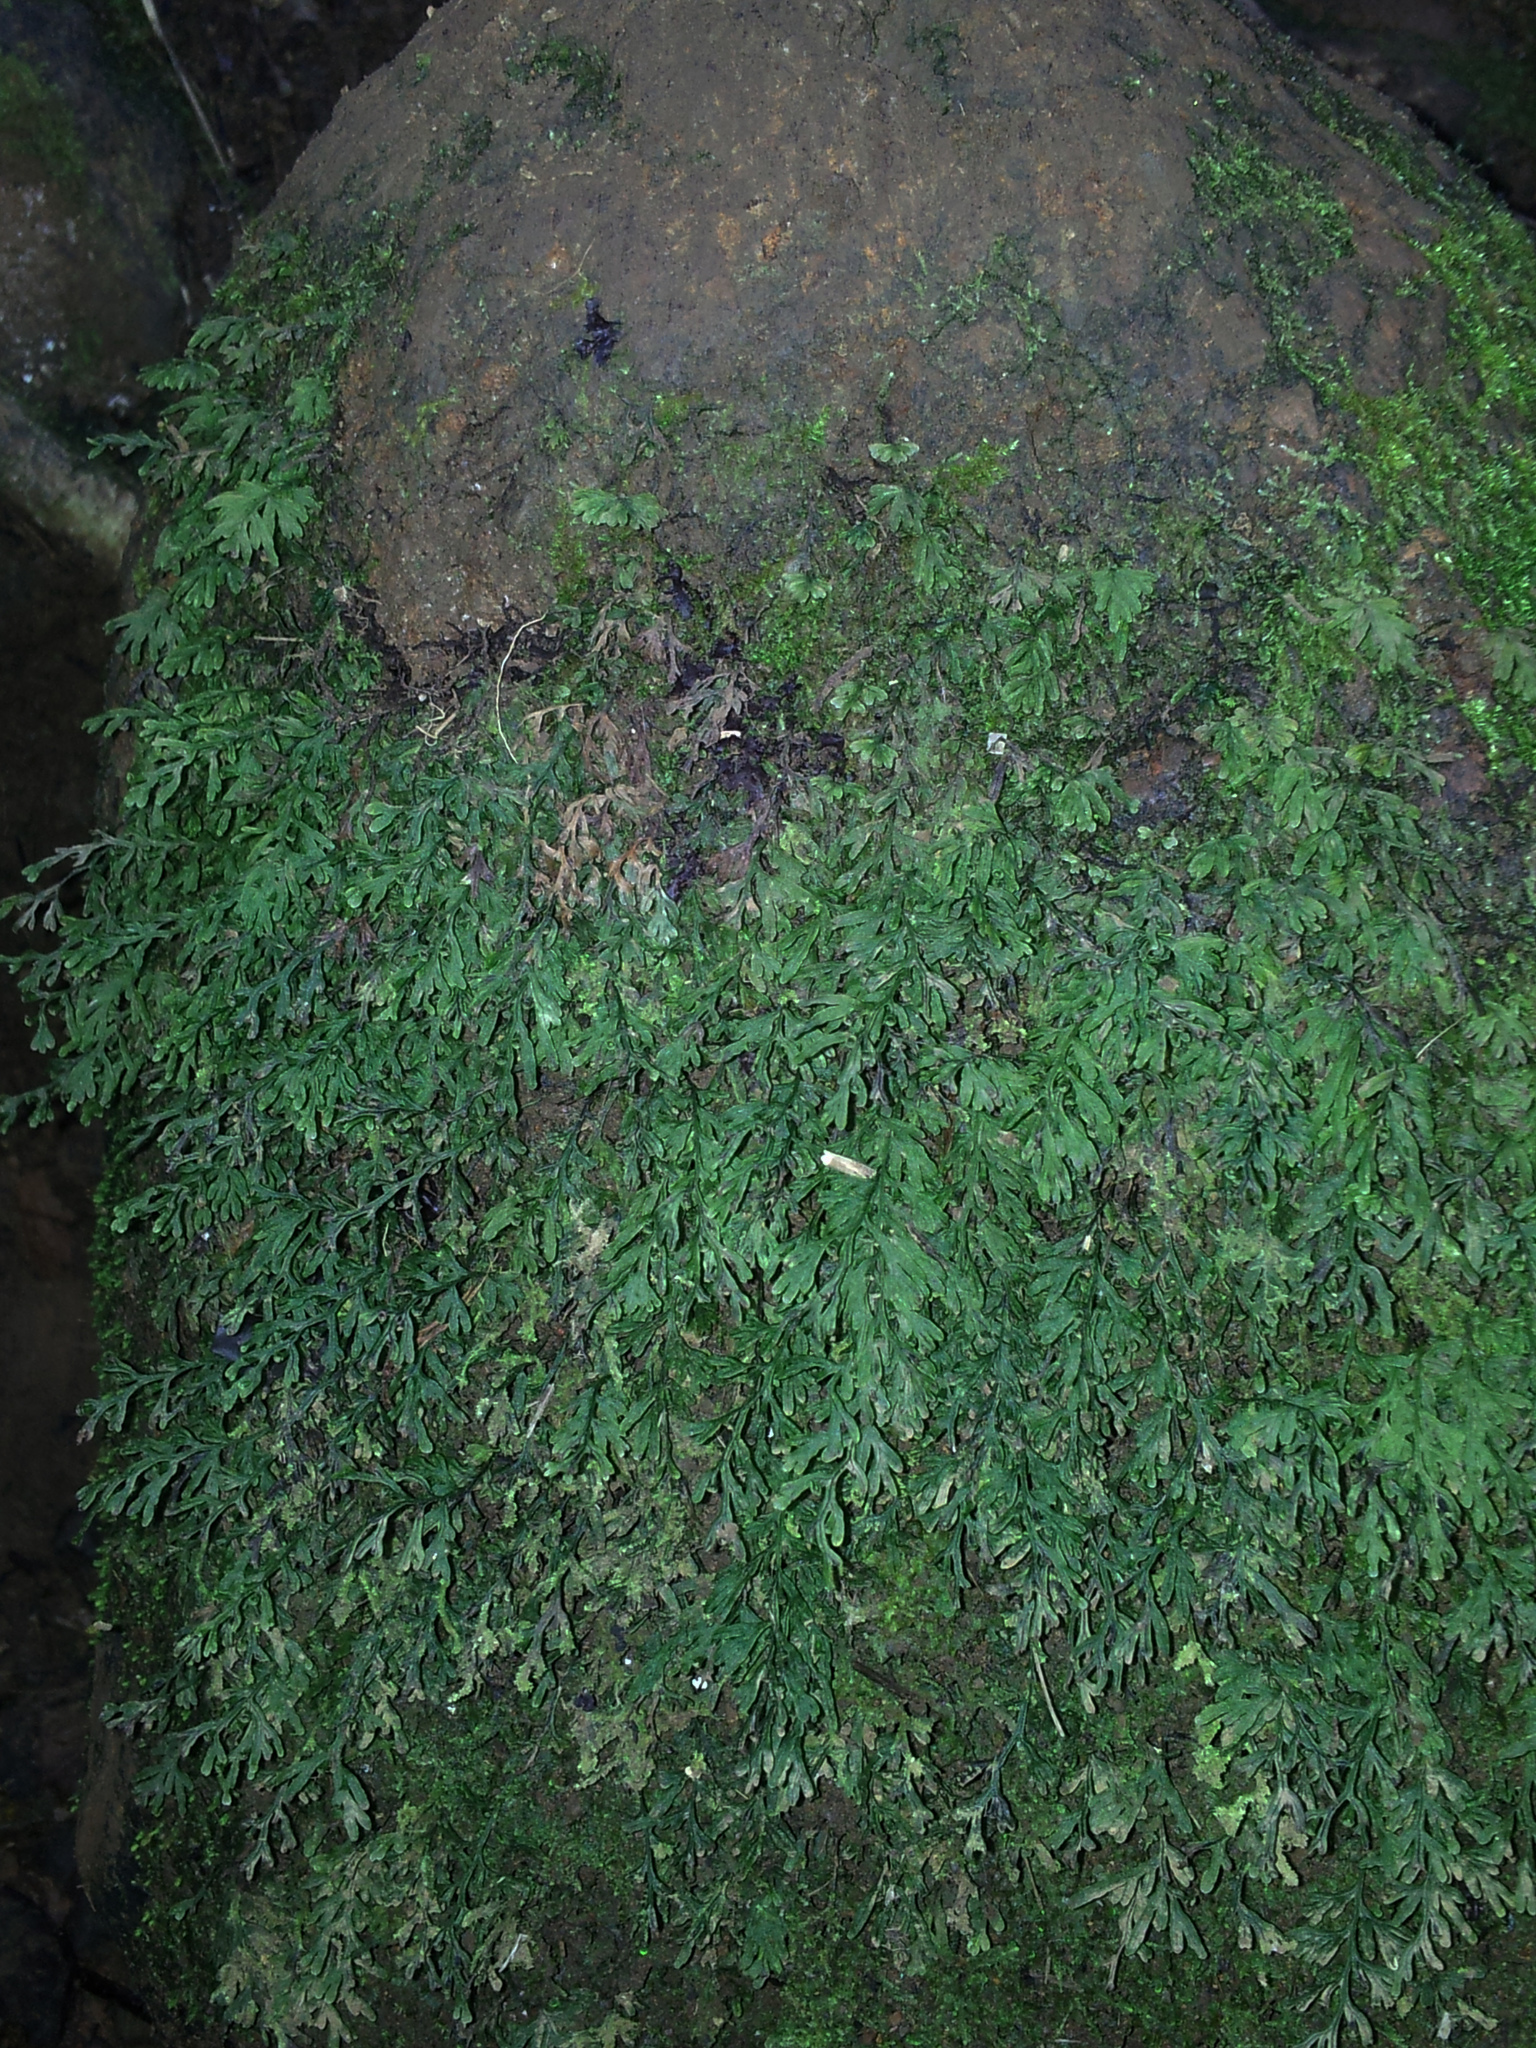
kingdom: Plantae
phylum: Tracheophyta
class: Polypodiopsida
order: Hymenophyllales
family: Hymenophyllaceae
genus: Crepidomanes
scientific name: Crepidomanes humile
